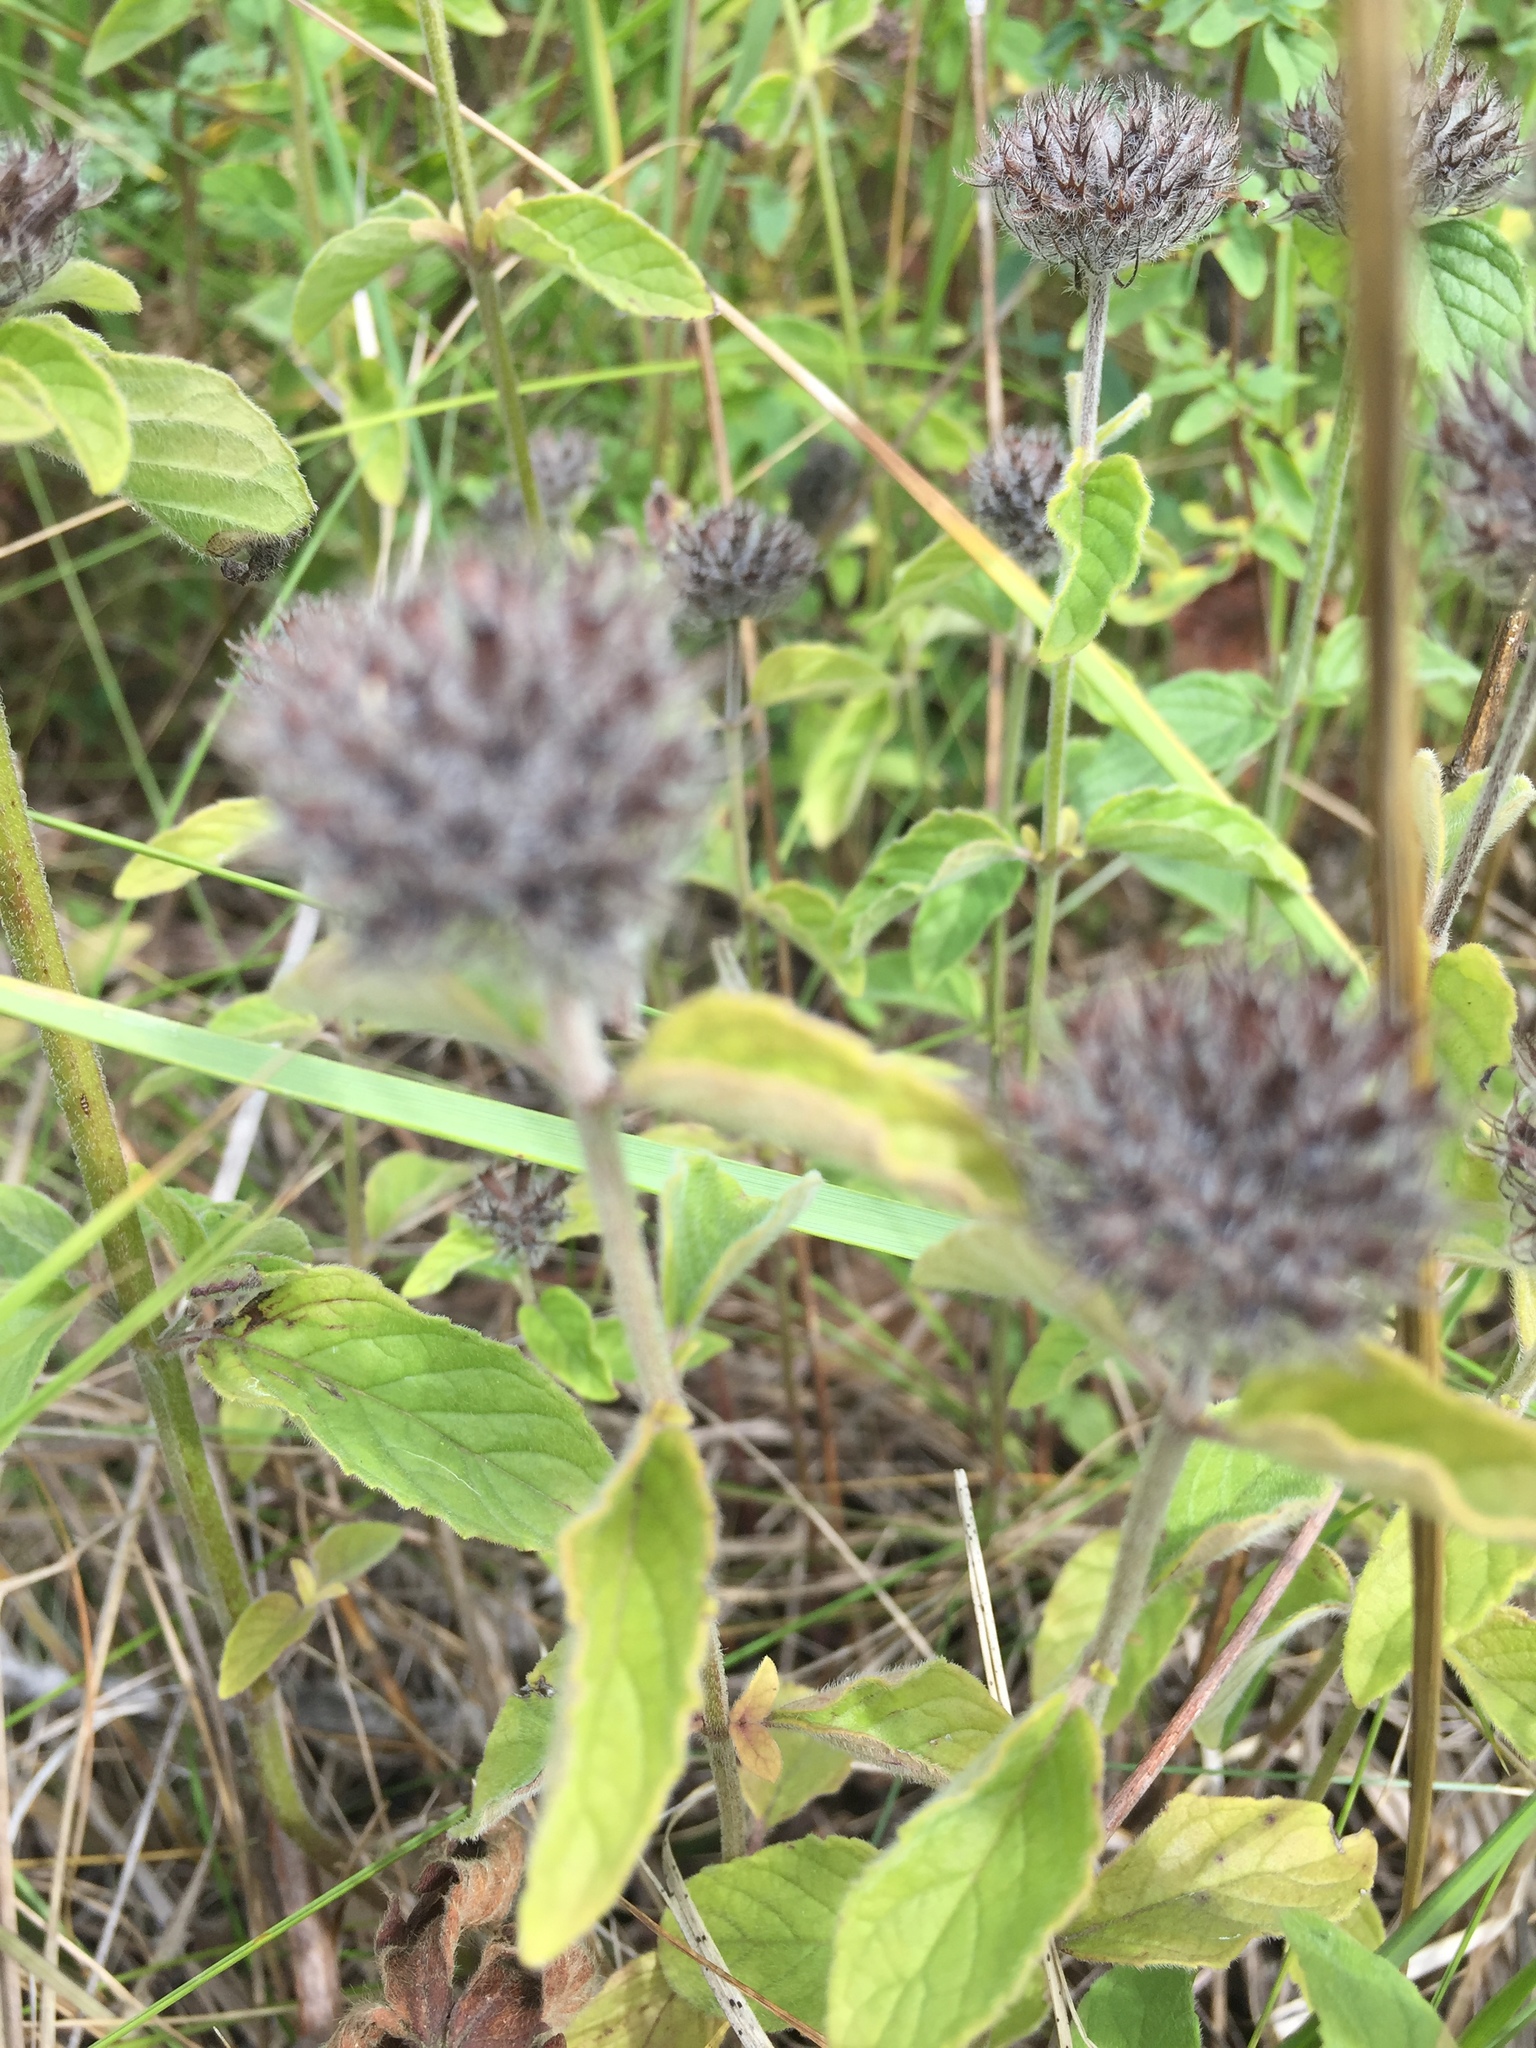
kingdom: Plantae
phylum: Tracheophyta
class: Magnoliopsida
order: Lamiales
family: Lamiaceae
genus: Clinopodium
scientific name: Clinopodium vulgare
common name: Wild basil
